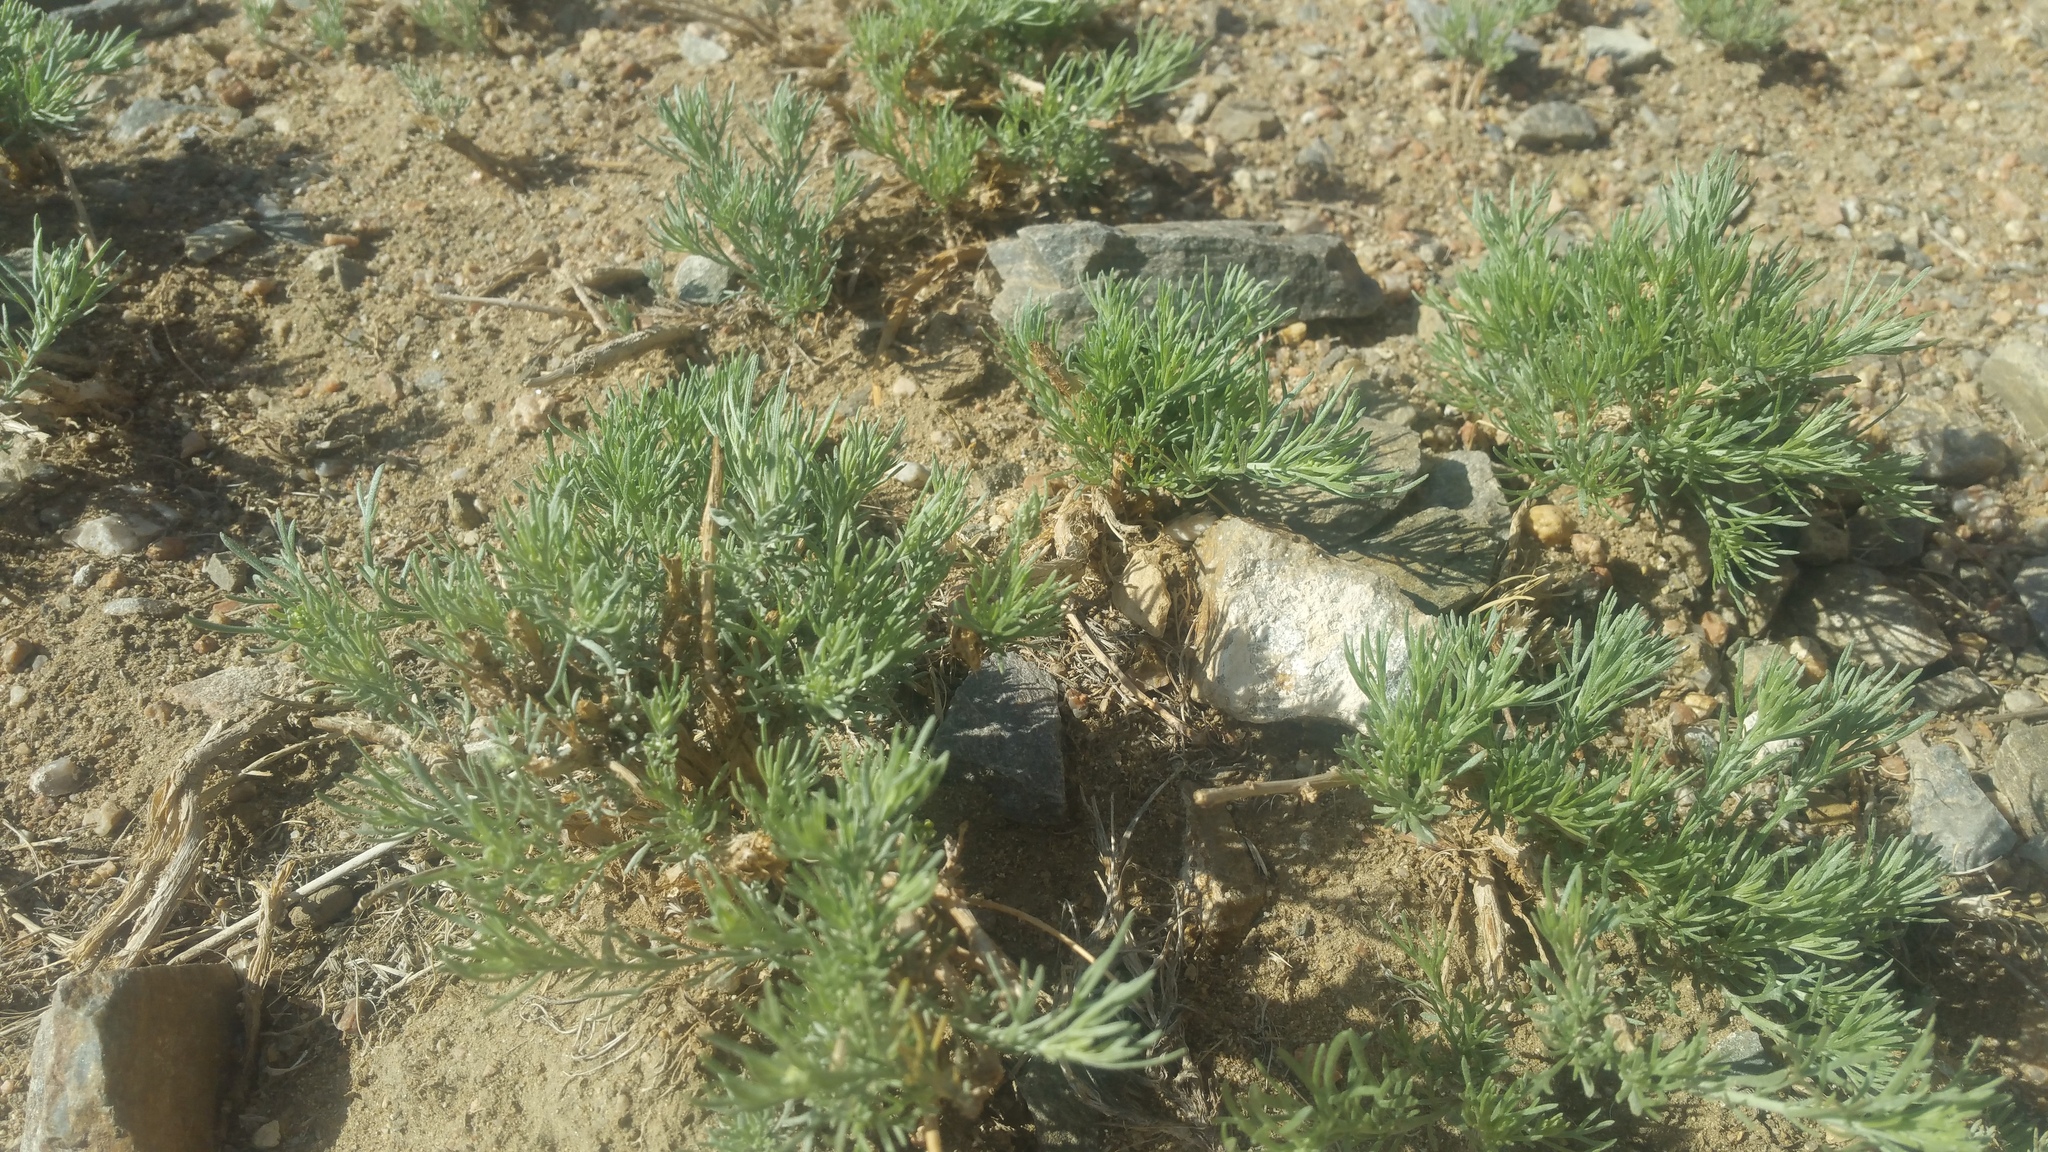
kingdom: Plantae
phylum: Tracheophyta
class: Magnoliopsida
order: Caryophyllales
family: Amaranthaceae
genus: Krascheninnikovia
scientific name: Krascheninnikovia ceratoides
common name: Pamirian winterfat
